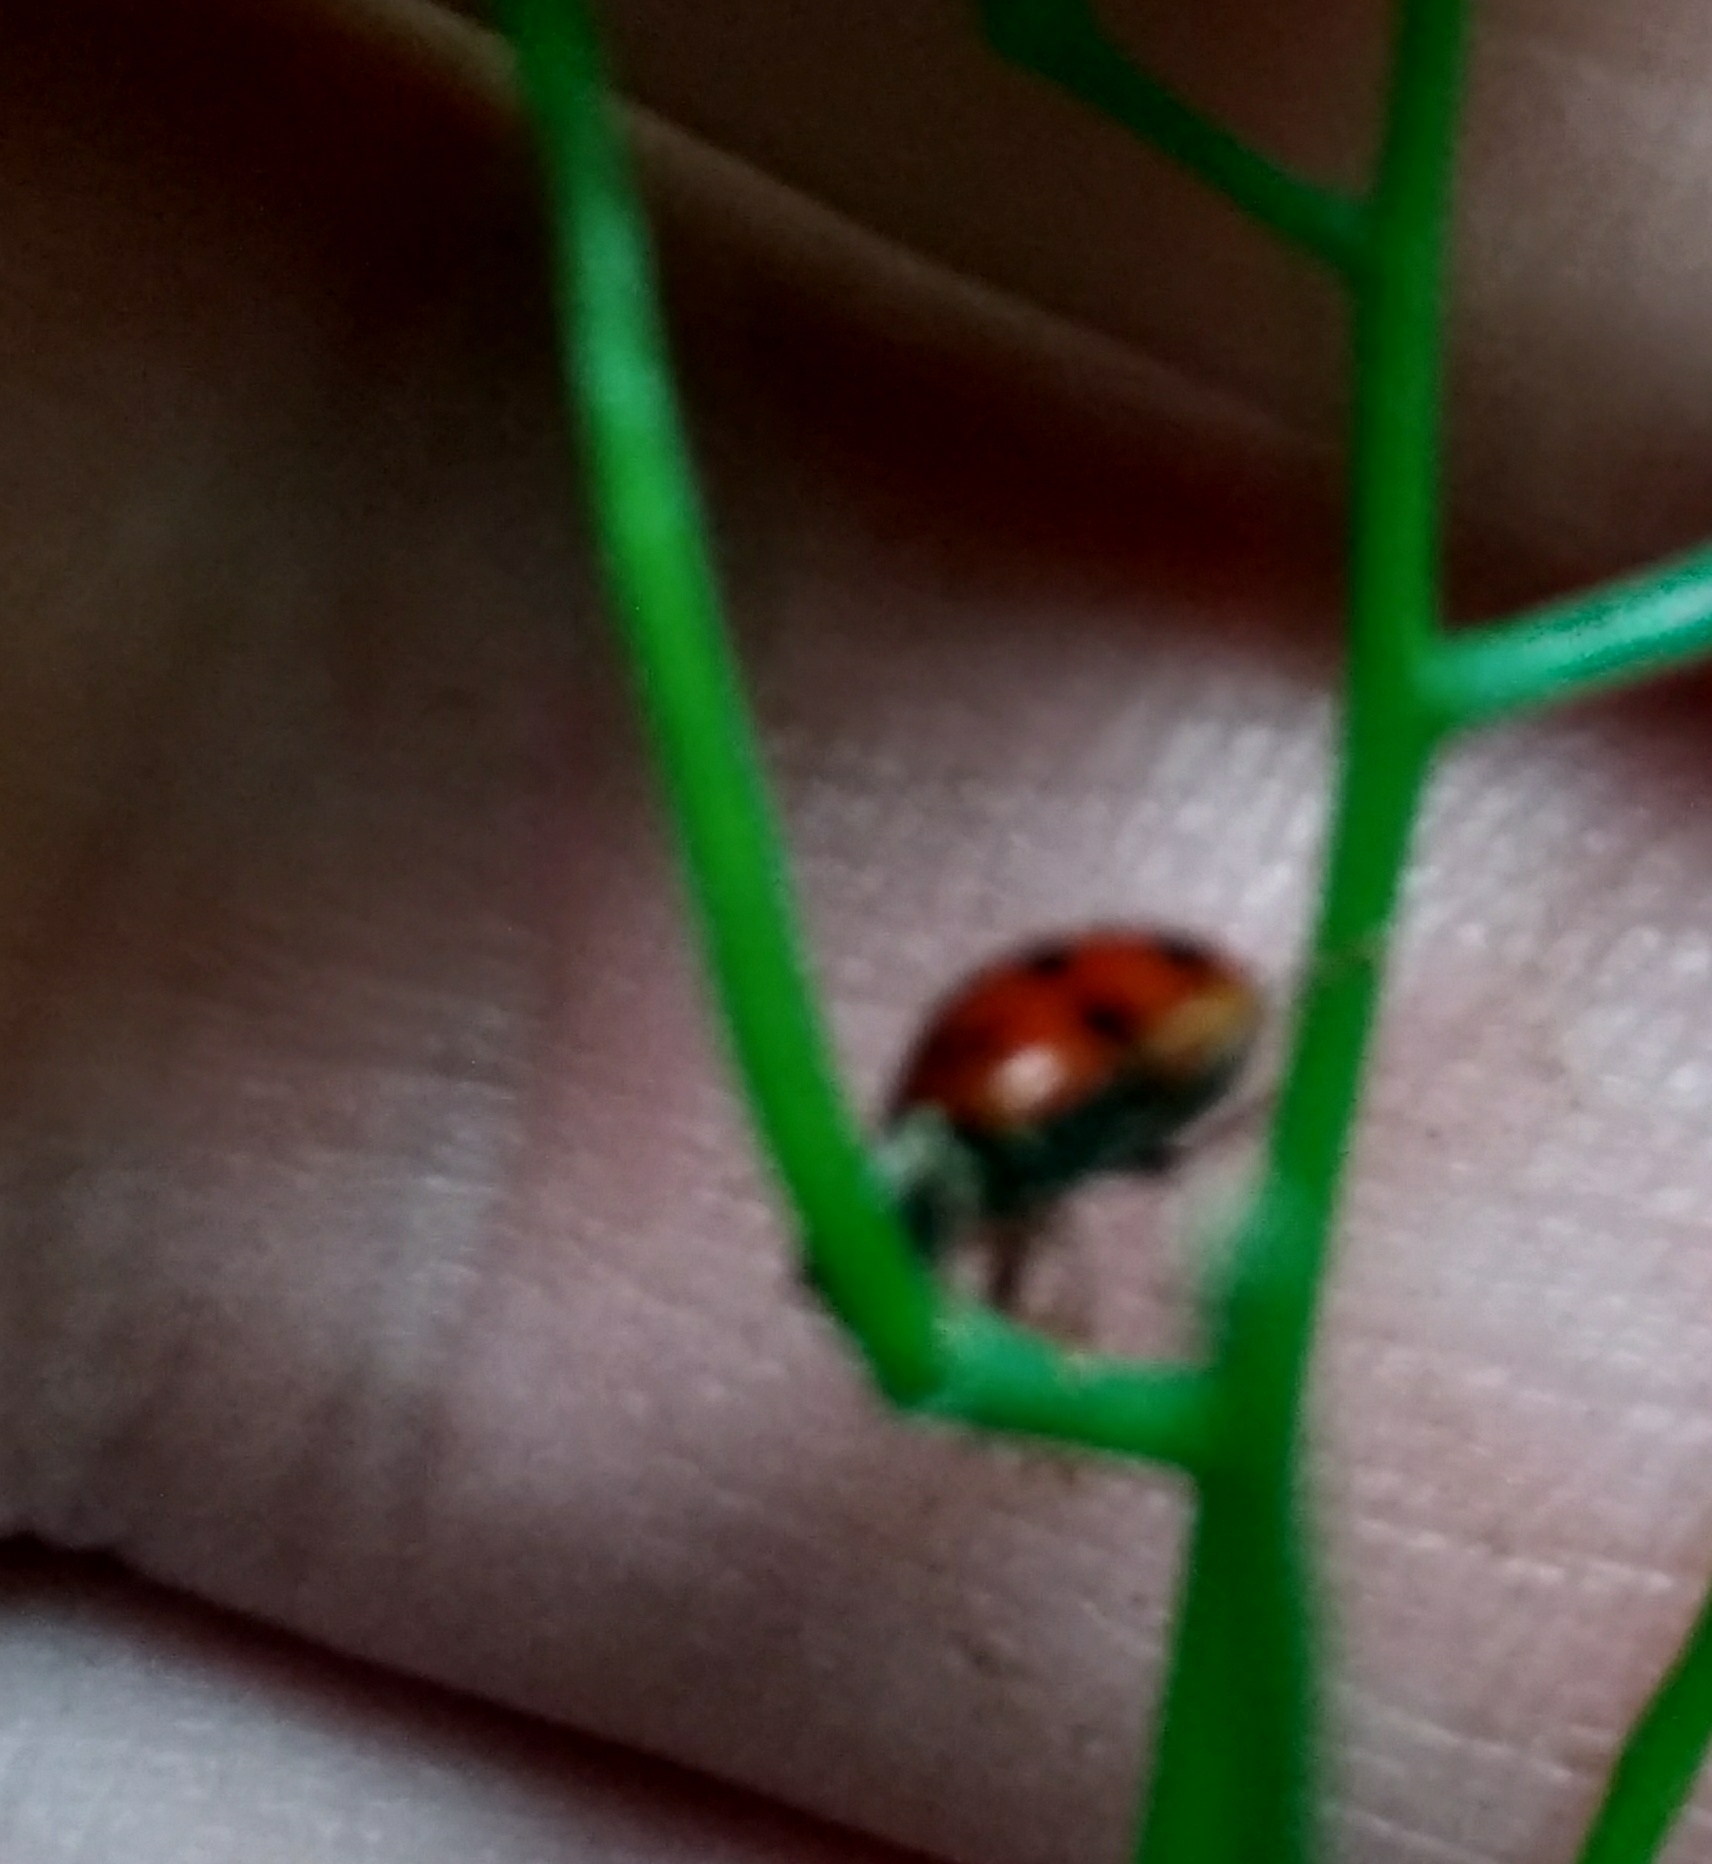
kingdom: Animalia
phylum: Arthropoda
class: Insecta
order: Coleoptera
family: Coccinellidae
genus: Harmonia
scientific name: Harmonia axyridis
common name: Harlequin ladybird
